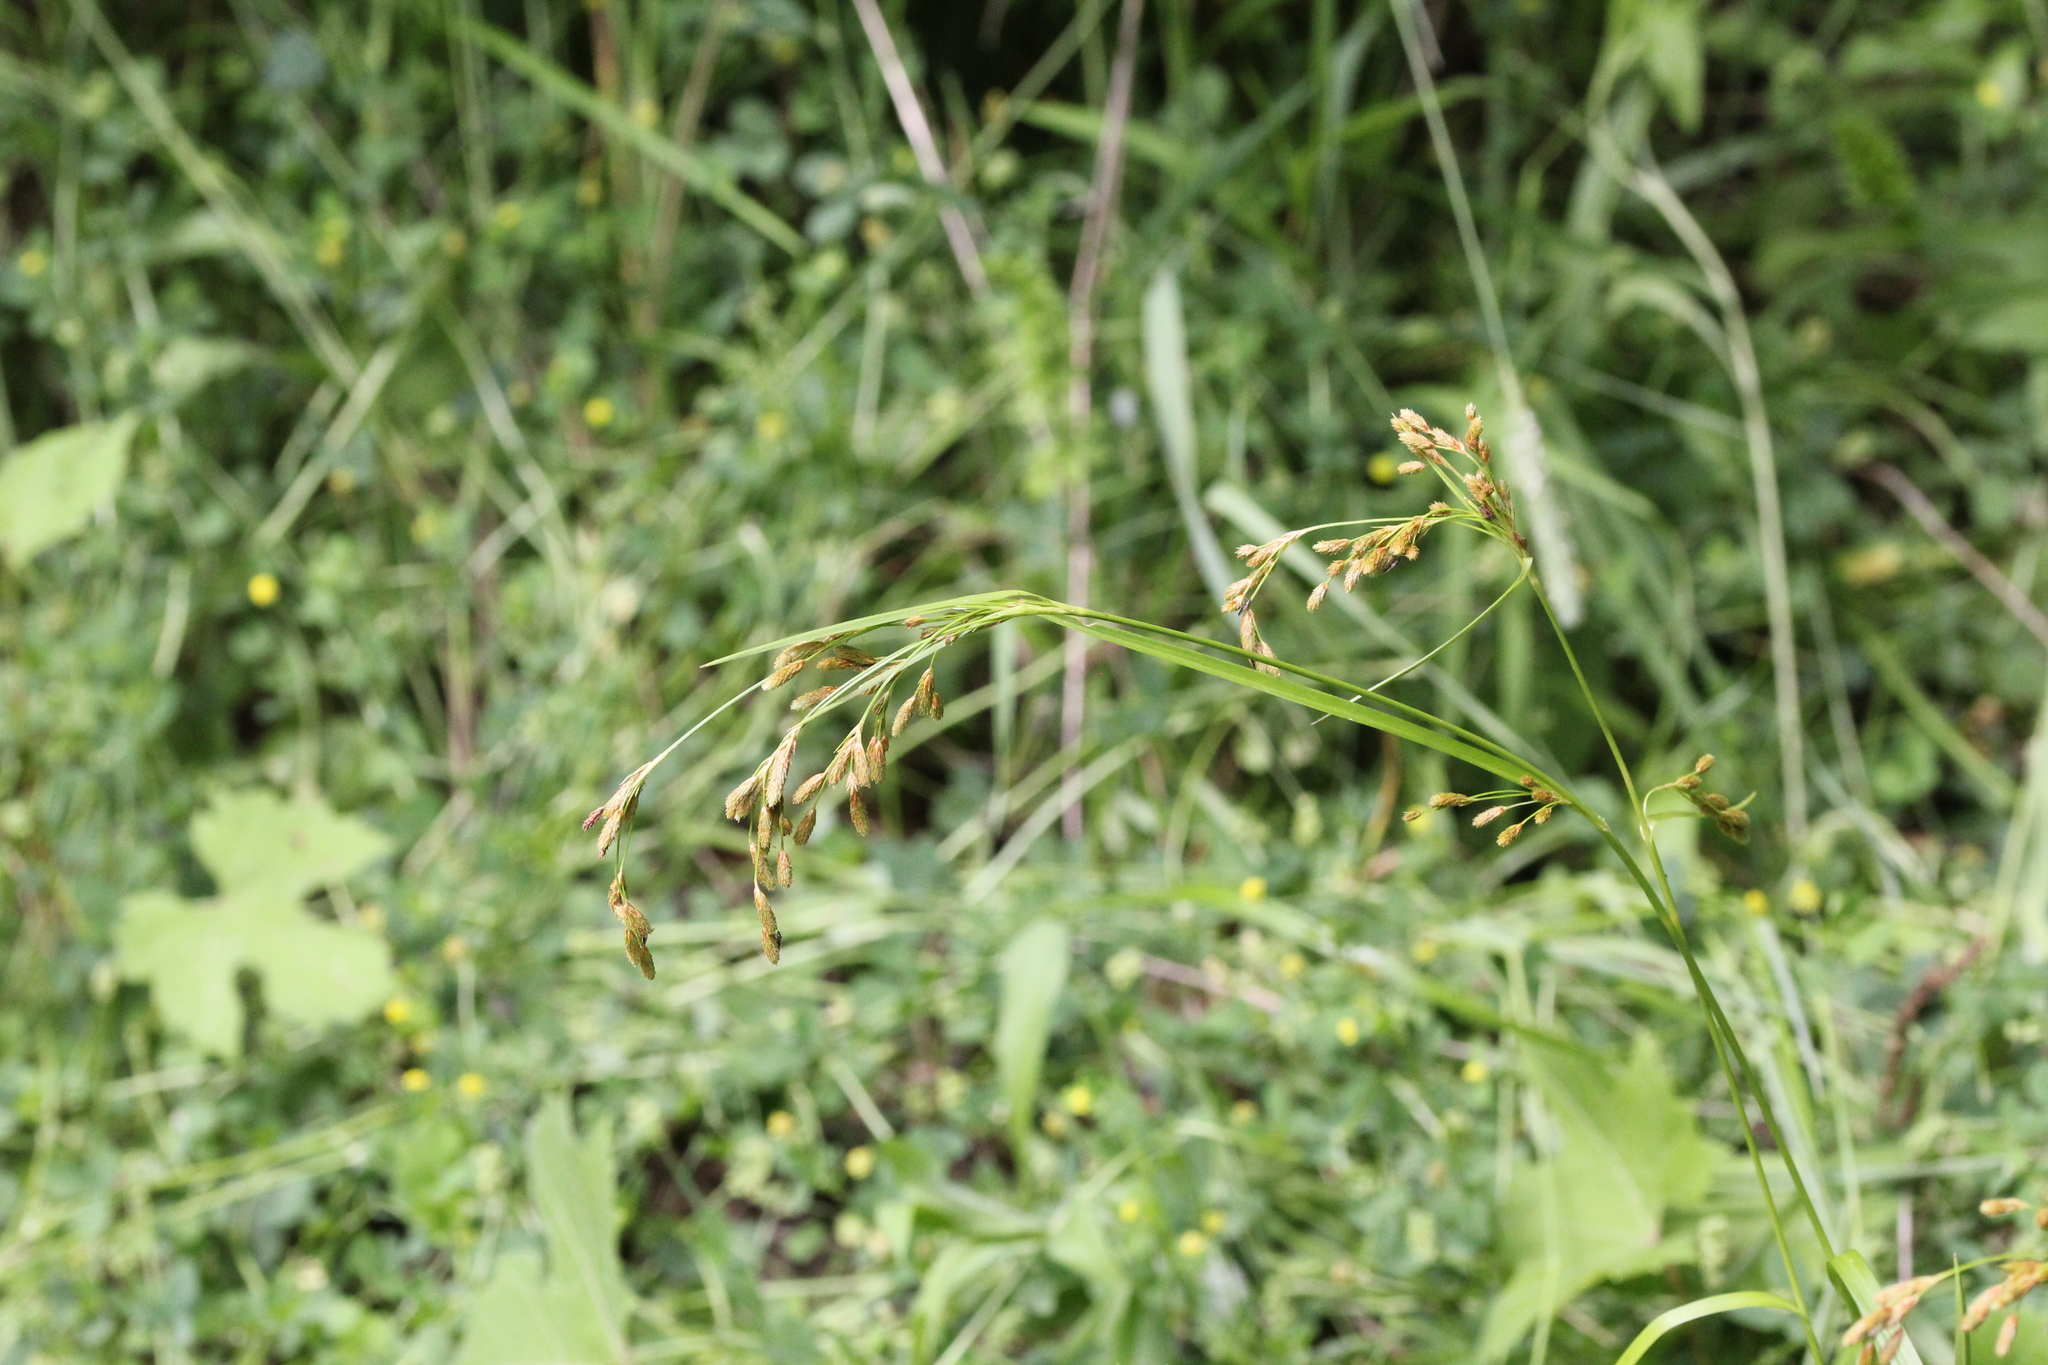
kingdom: Plantae
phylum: Tracheophyta
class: Liliopsida
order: Poales
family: Cyperaceae
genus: Scirpus
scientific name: Scirpus pendulus
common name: Nodding bulrush
